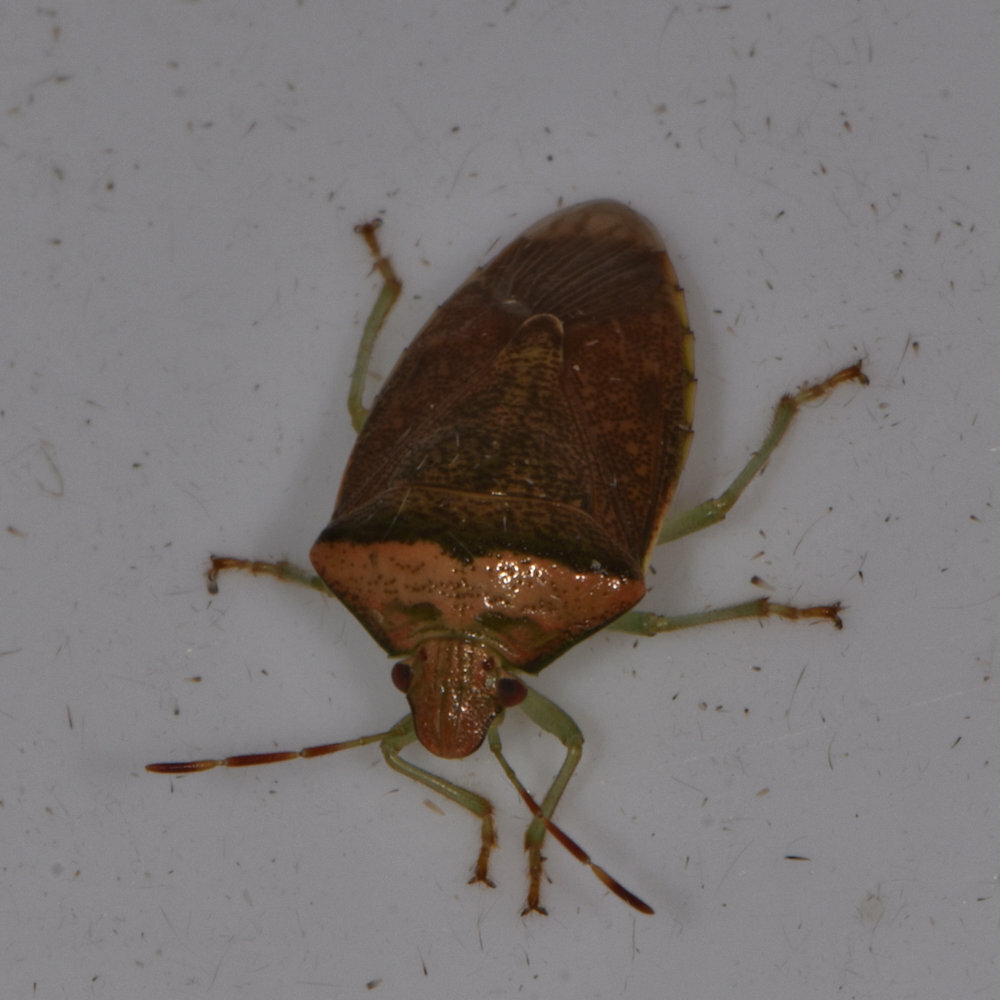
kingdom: Animalia
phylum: Arthropoda
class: Insecta
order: Hemiptera
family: Pentatomidae
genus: Banasa
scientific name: Banasa calva
